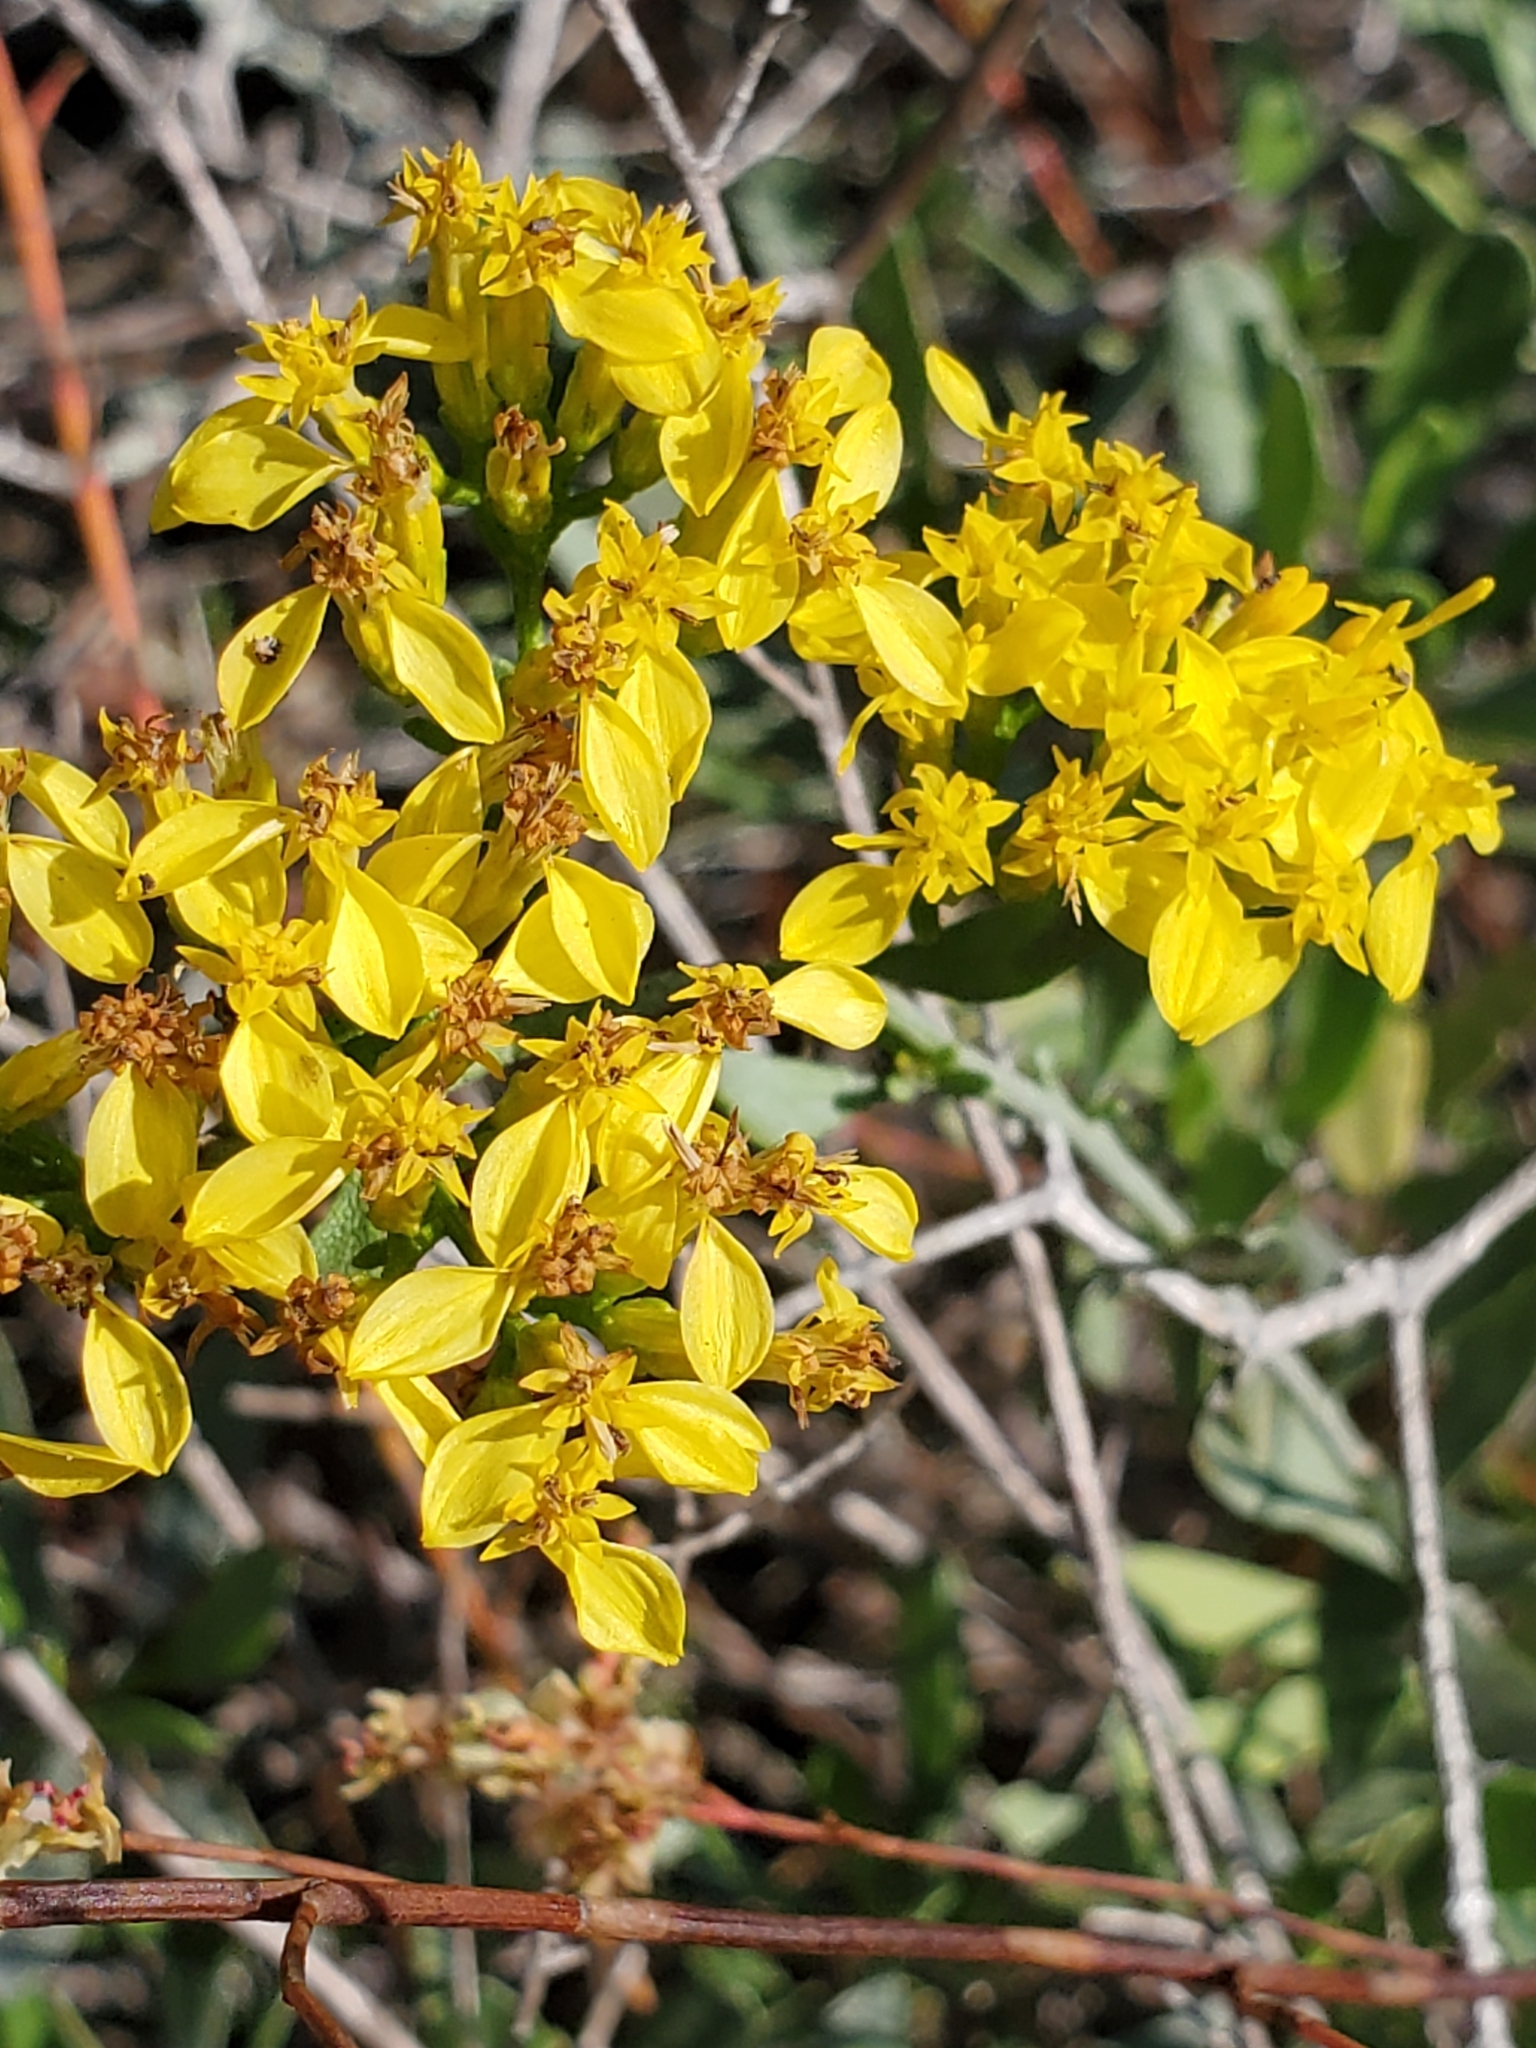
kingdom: Plantae
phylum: Tracheophyta
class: Magnoliopsida
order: Asterales
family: Asteraceae
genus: Chrysoma
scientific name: Chrysoma pauciflosculosa
